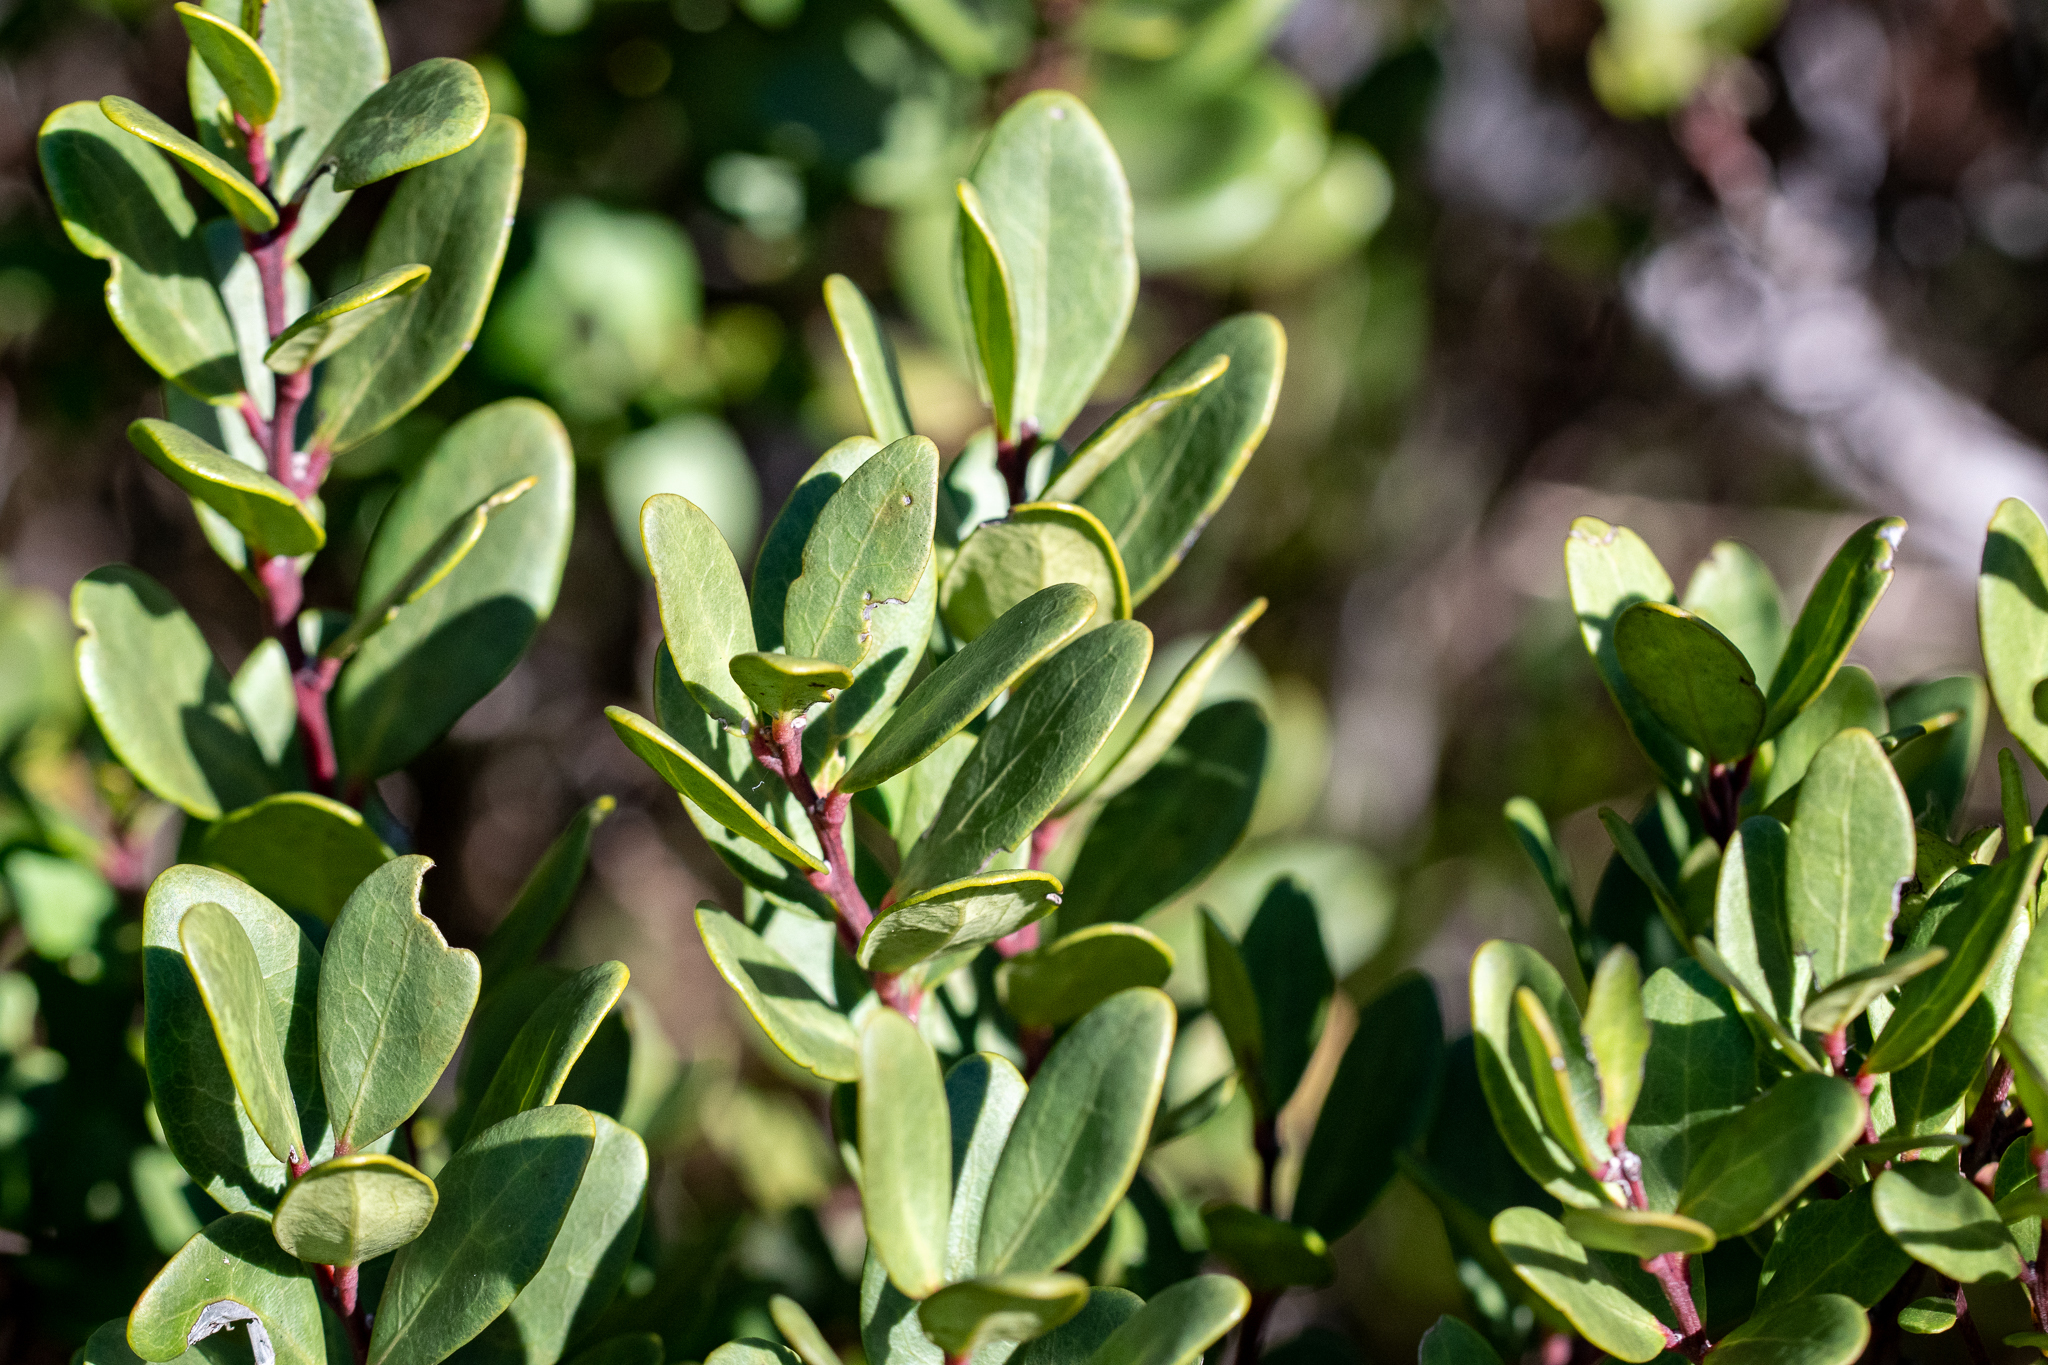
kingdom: Plantae
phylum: Tracheophyta
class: Magnoliopsida
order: Ericales
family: Ebenaceae
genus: Euclea
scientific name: Euclea racemosa
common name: Dune guarri
